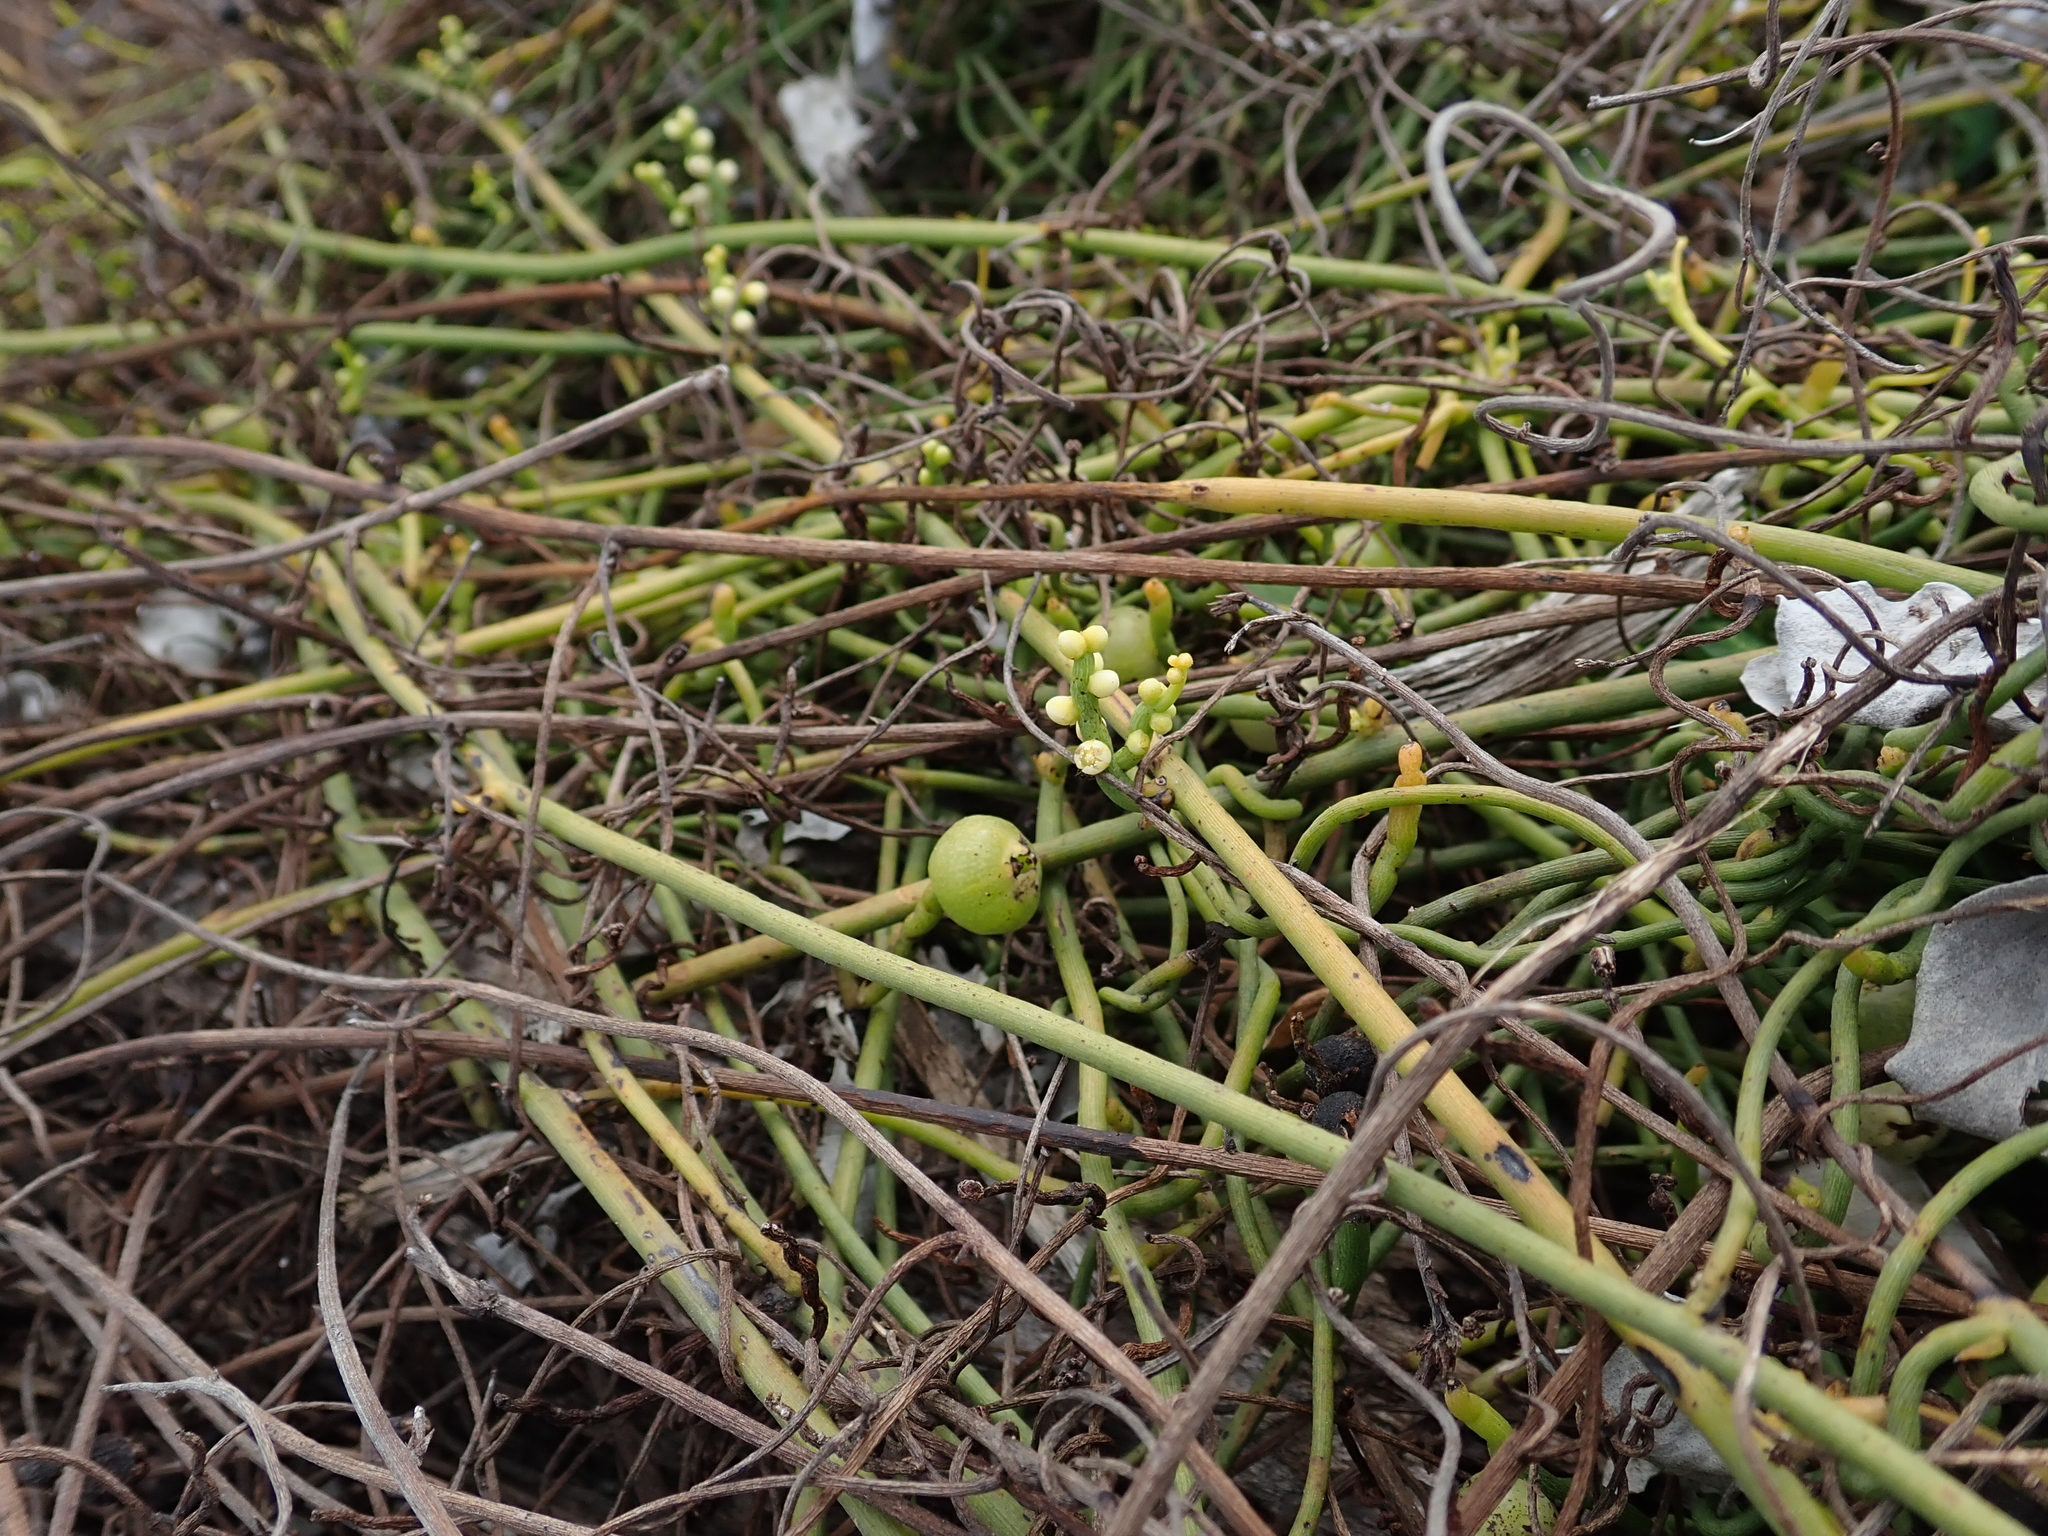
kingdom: Plantae
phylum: Tracheophyta
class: Magnoliopsida
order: Laurales
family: Lauraceae
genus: Cassytha
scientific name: Cassytha filiformis
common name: Dodder-laurel
